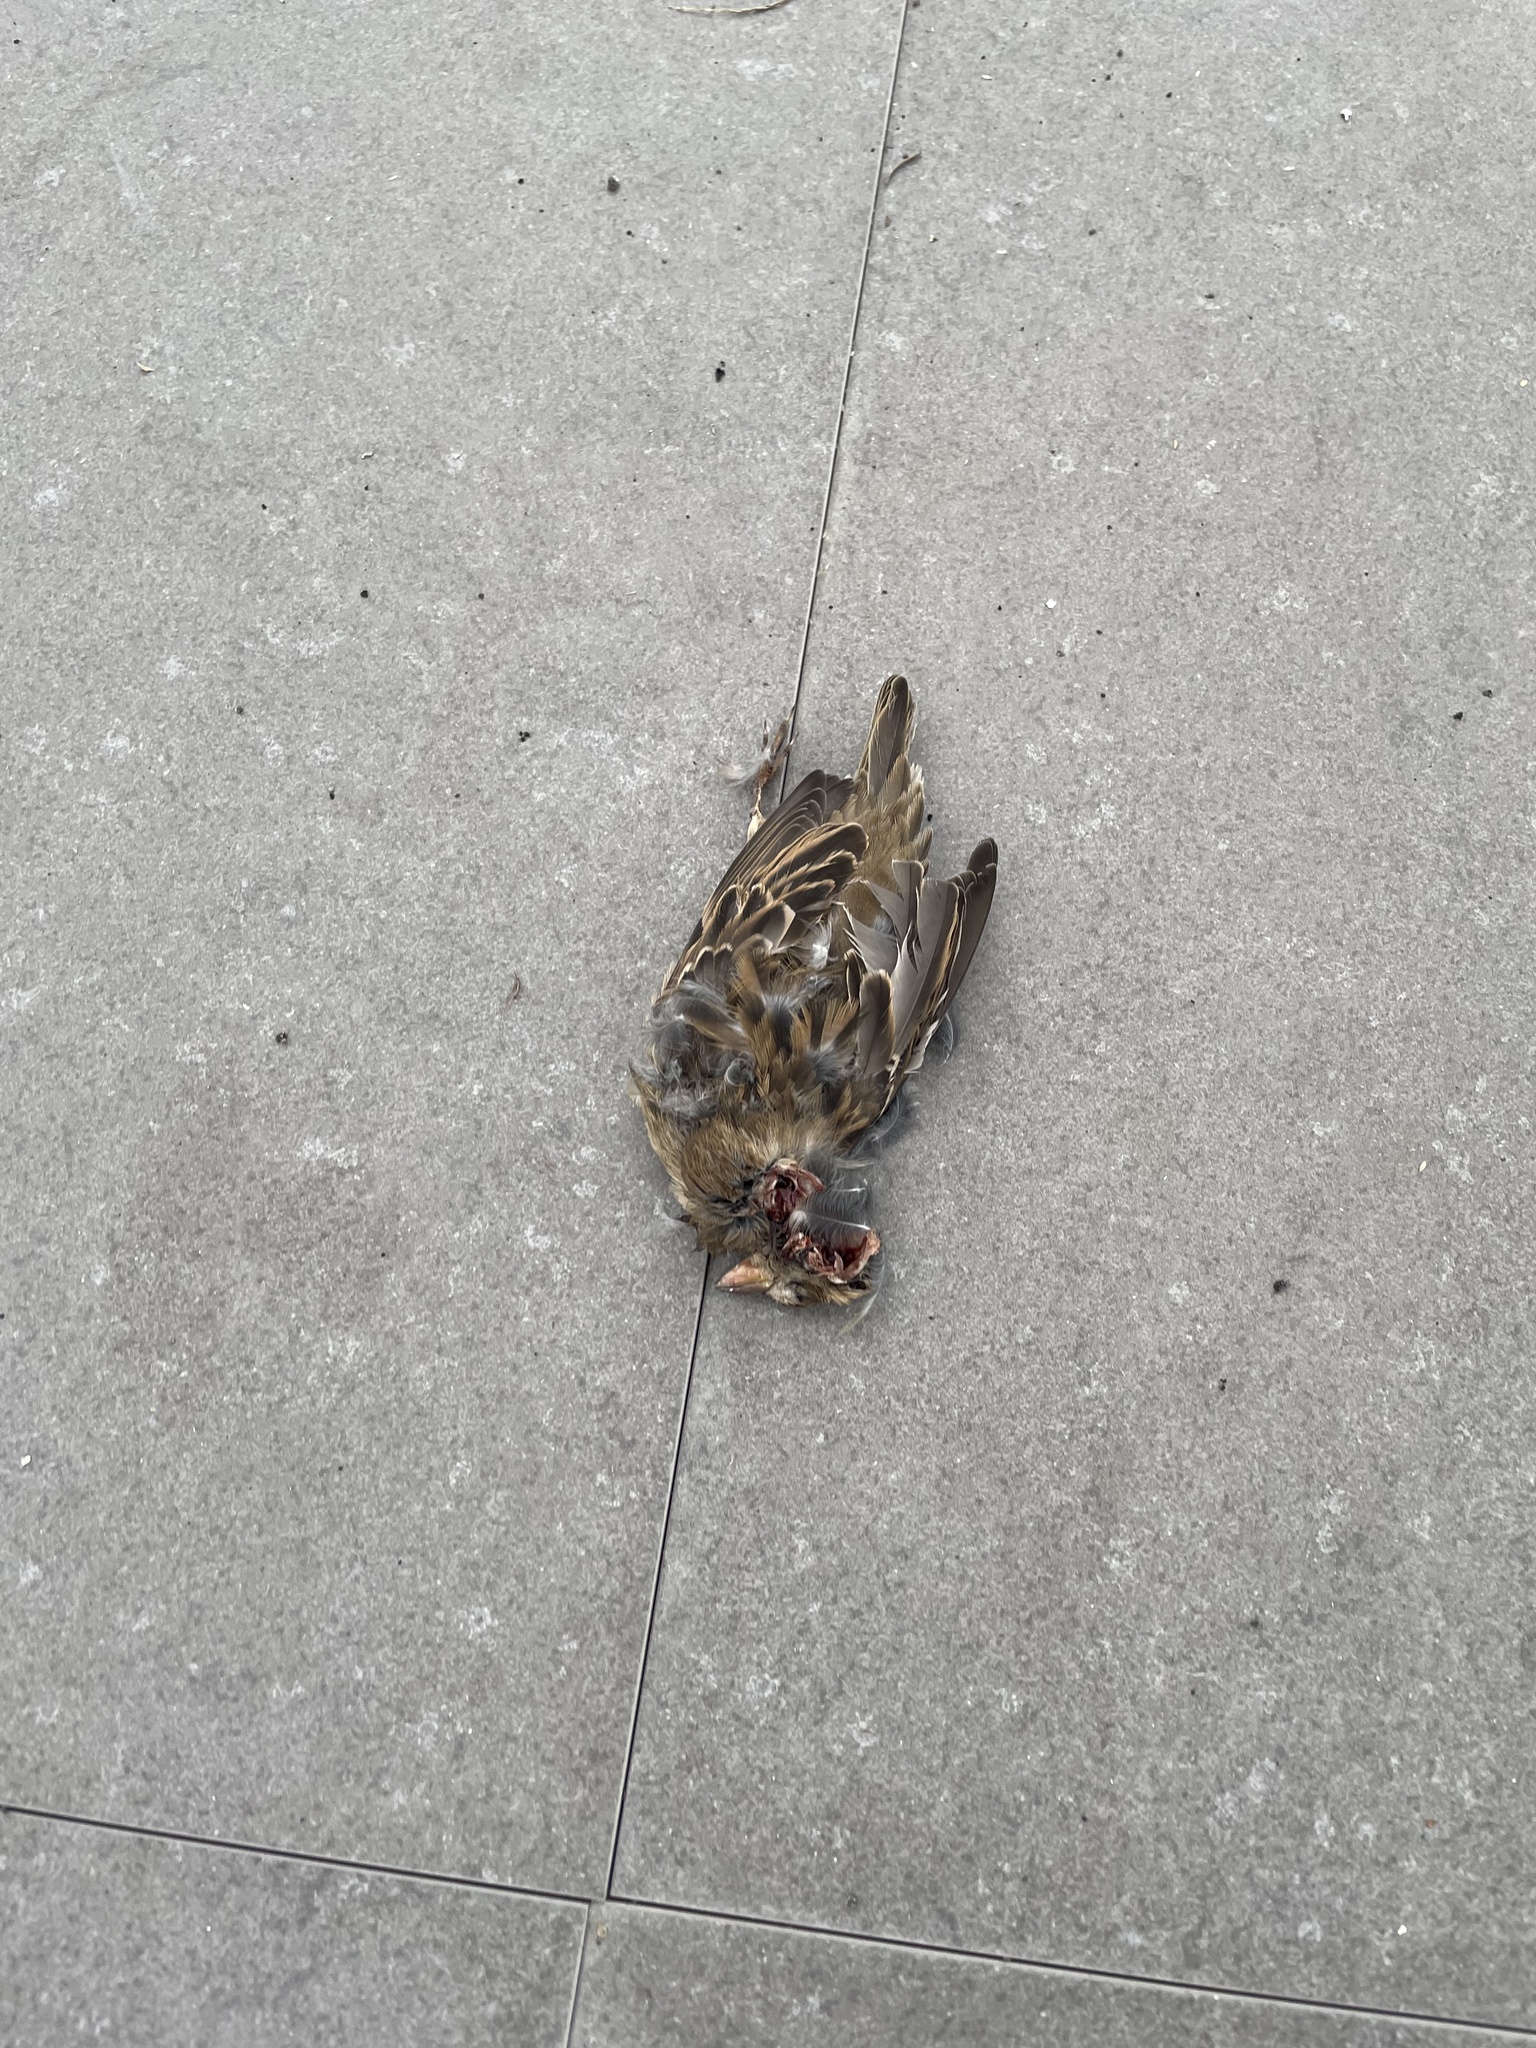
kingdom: Animalia
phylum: Chordata
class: Aves
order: Passeriformes
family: Passeridae
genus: Passer
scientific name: Passer domesticus
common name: House sparrow
